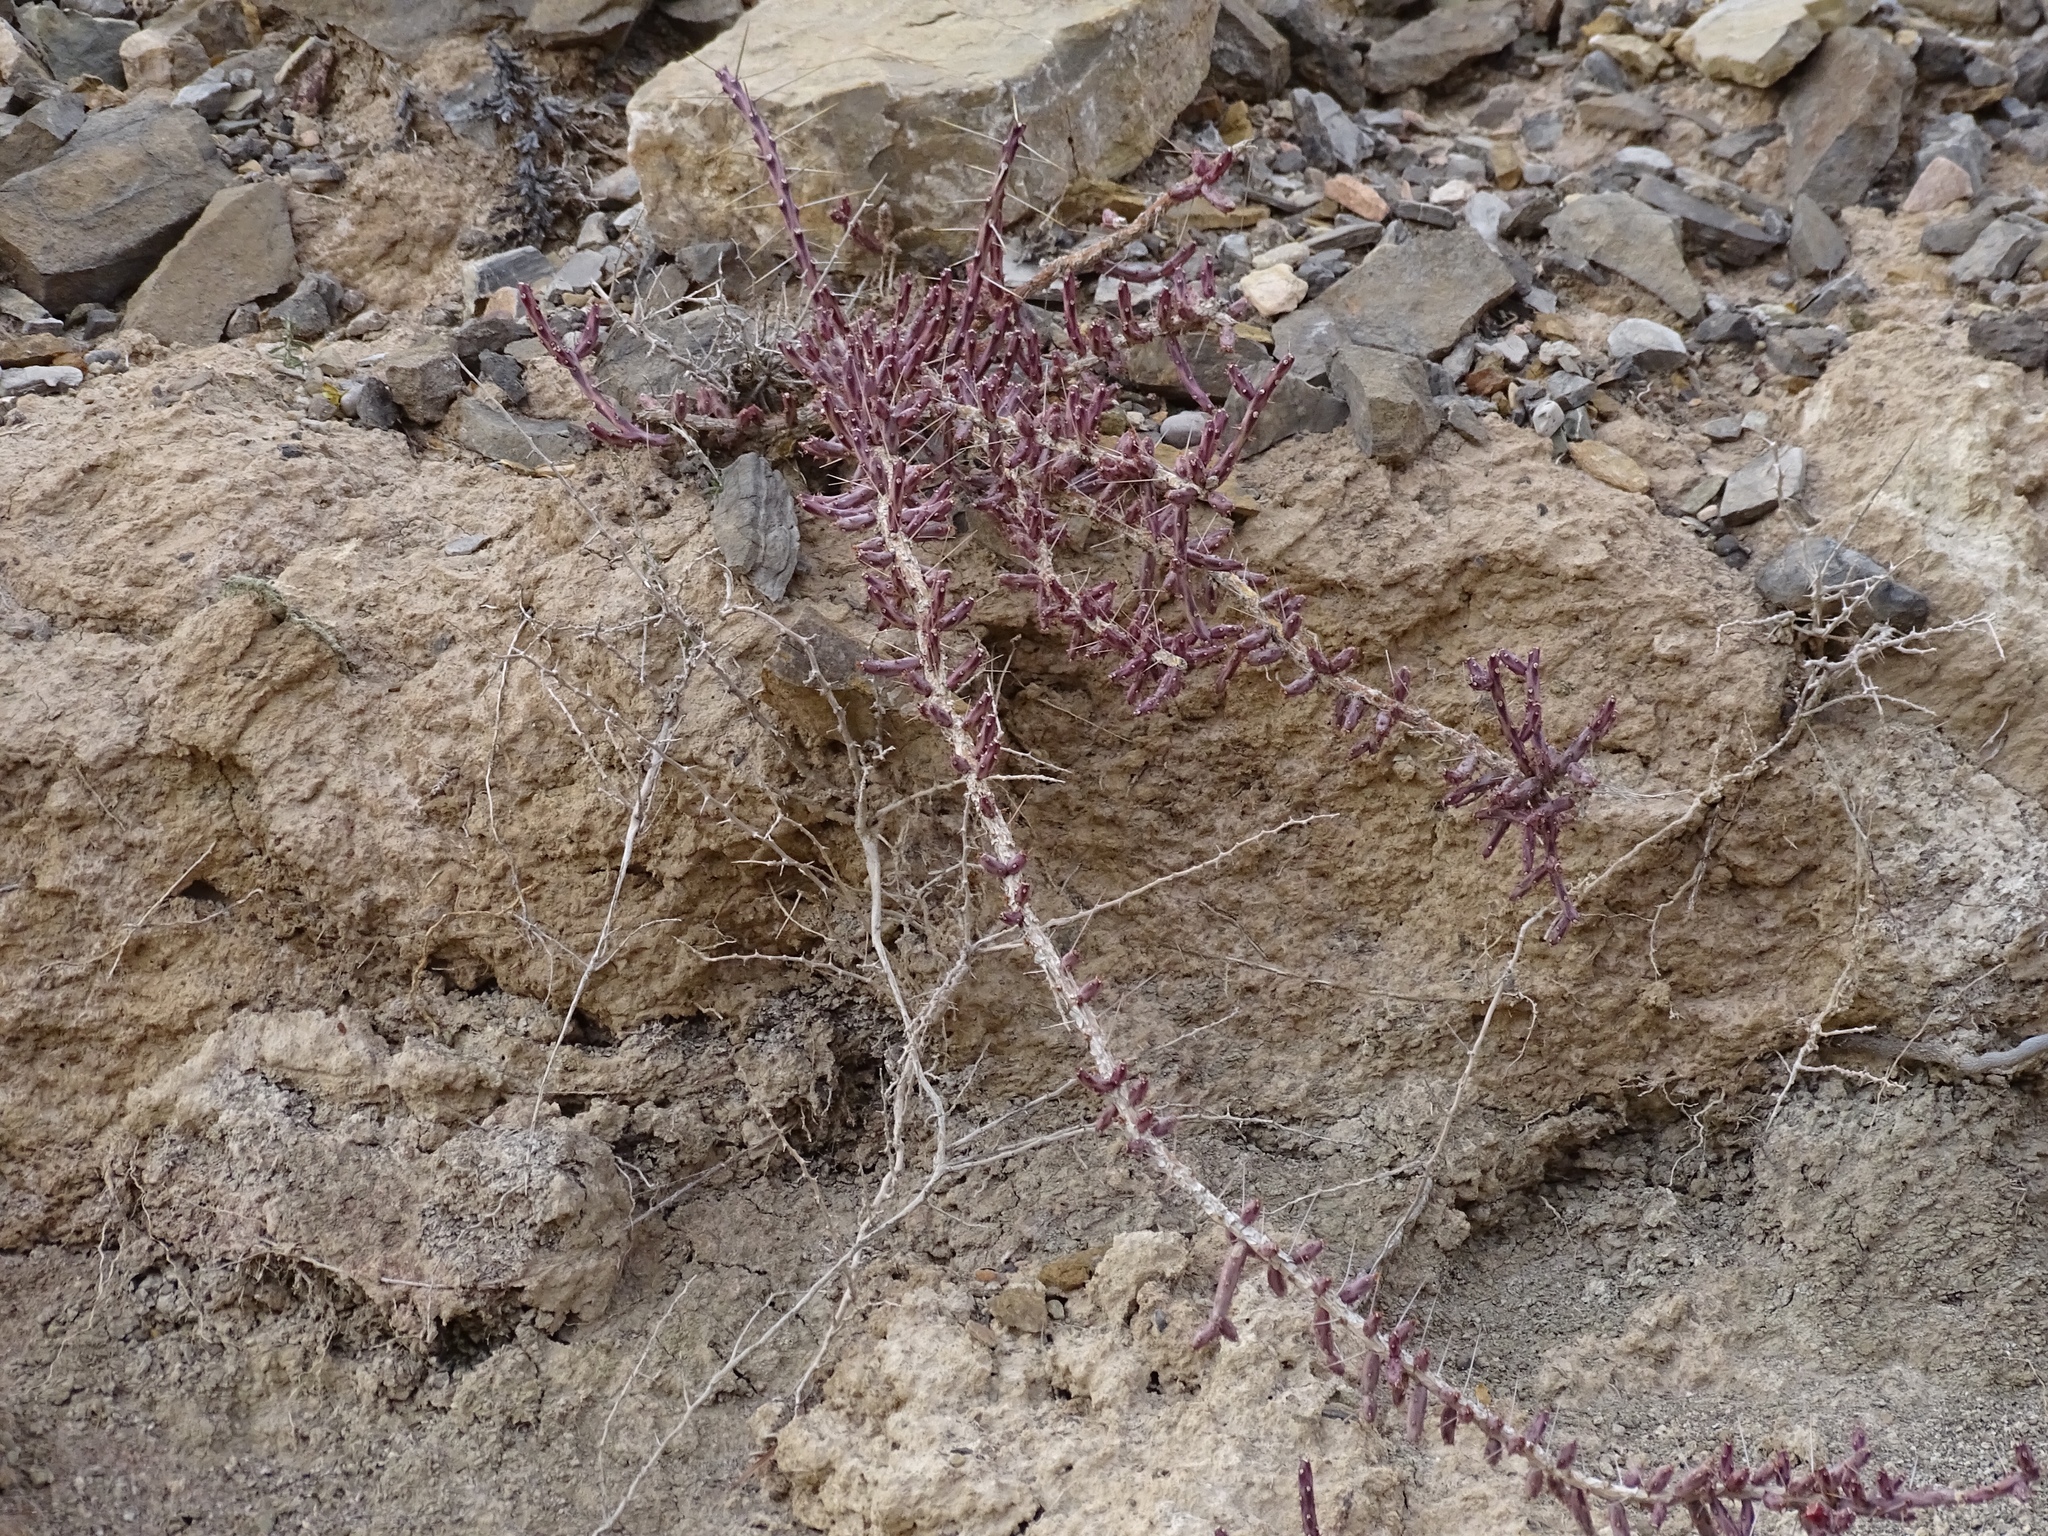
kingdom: Plantae
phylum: Tracheophyta
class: Magnoliopsida
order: Caryophyllales
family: Cactaceae
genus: Cylindropuntia
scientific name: Cylindropuntia leptocaulis
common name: Christmas cactus
